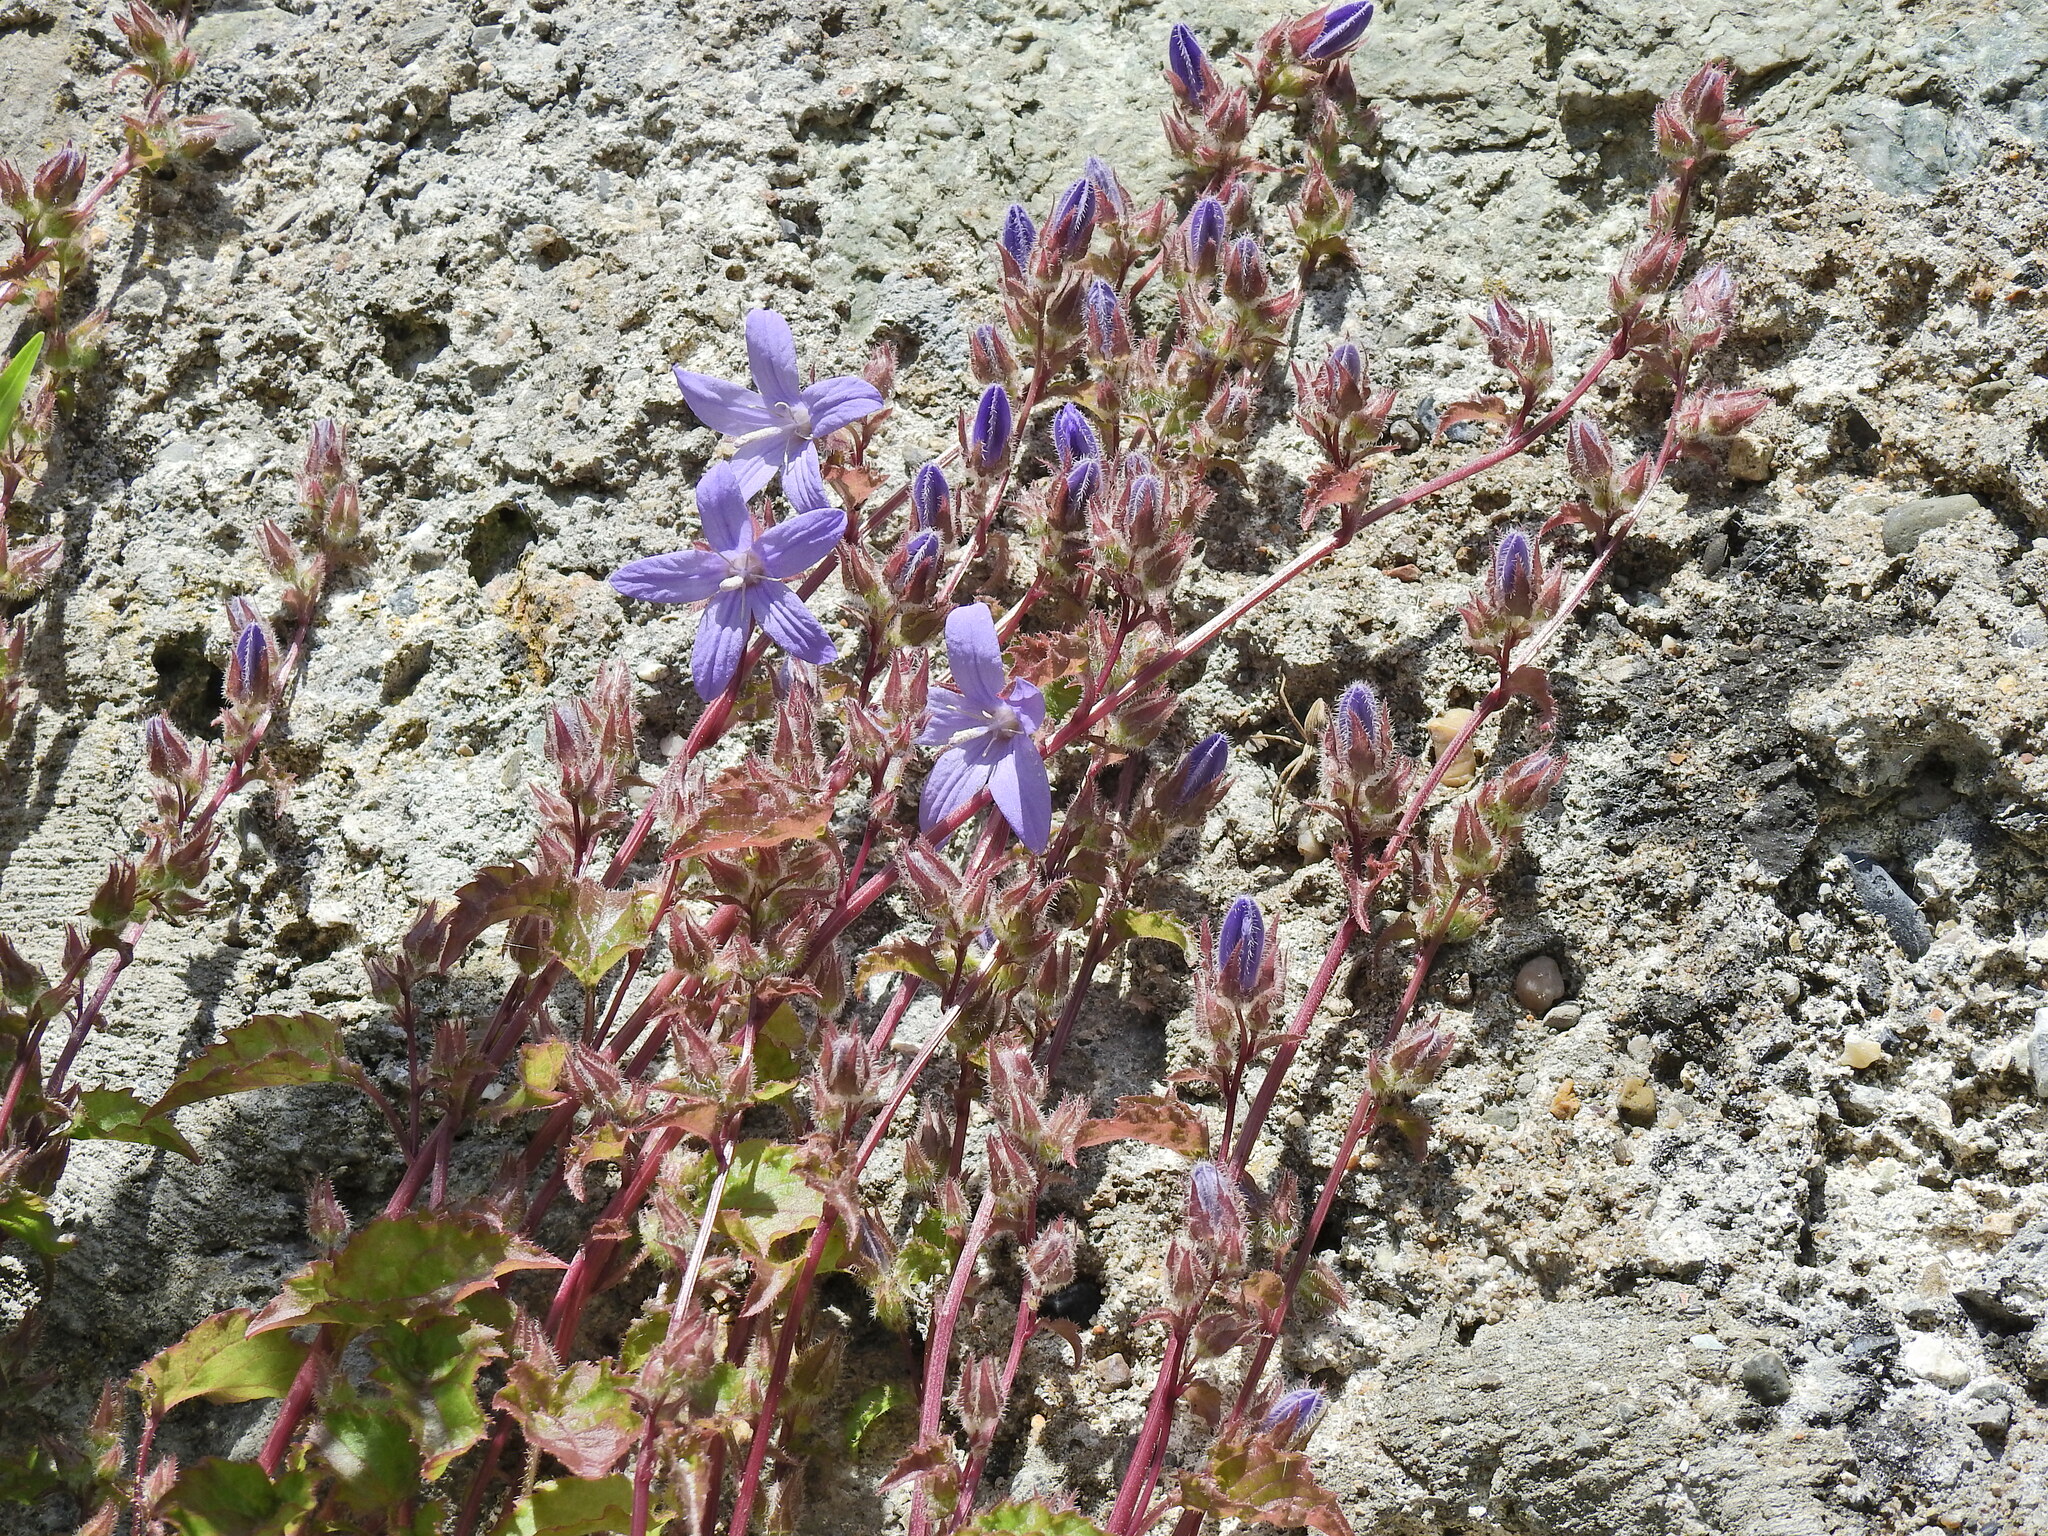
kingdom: Plantae
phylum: Tracheophyta
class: Magnoliopsida
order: Asterales
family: Campanulaceae
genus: Campanula
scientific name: Campanula poscharskyana
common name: Trailing bellflower
